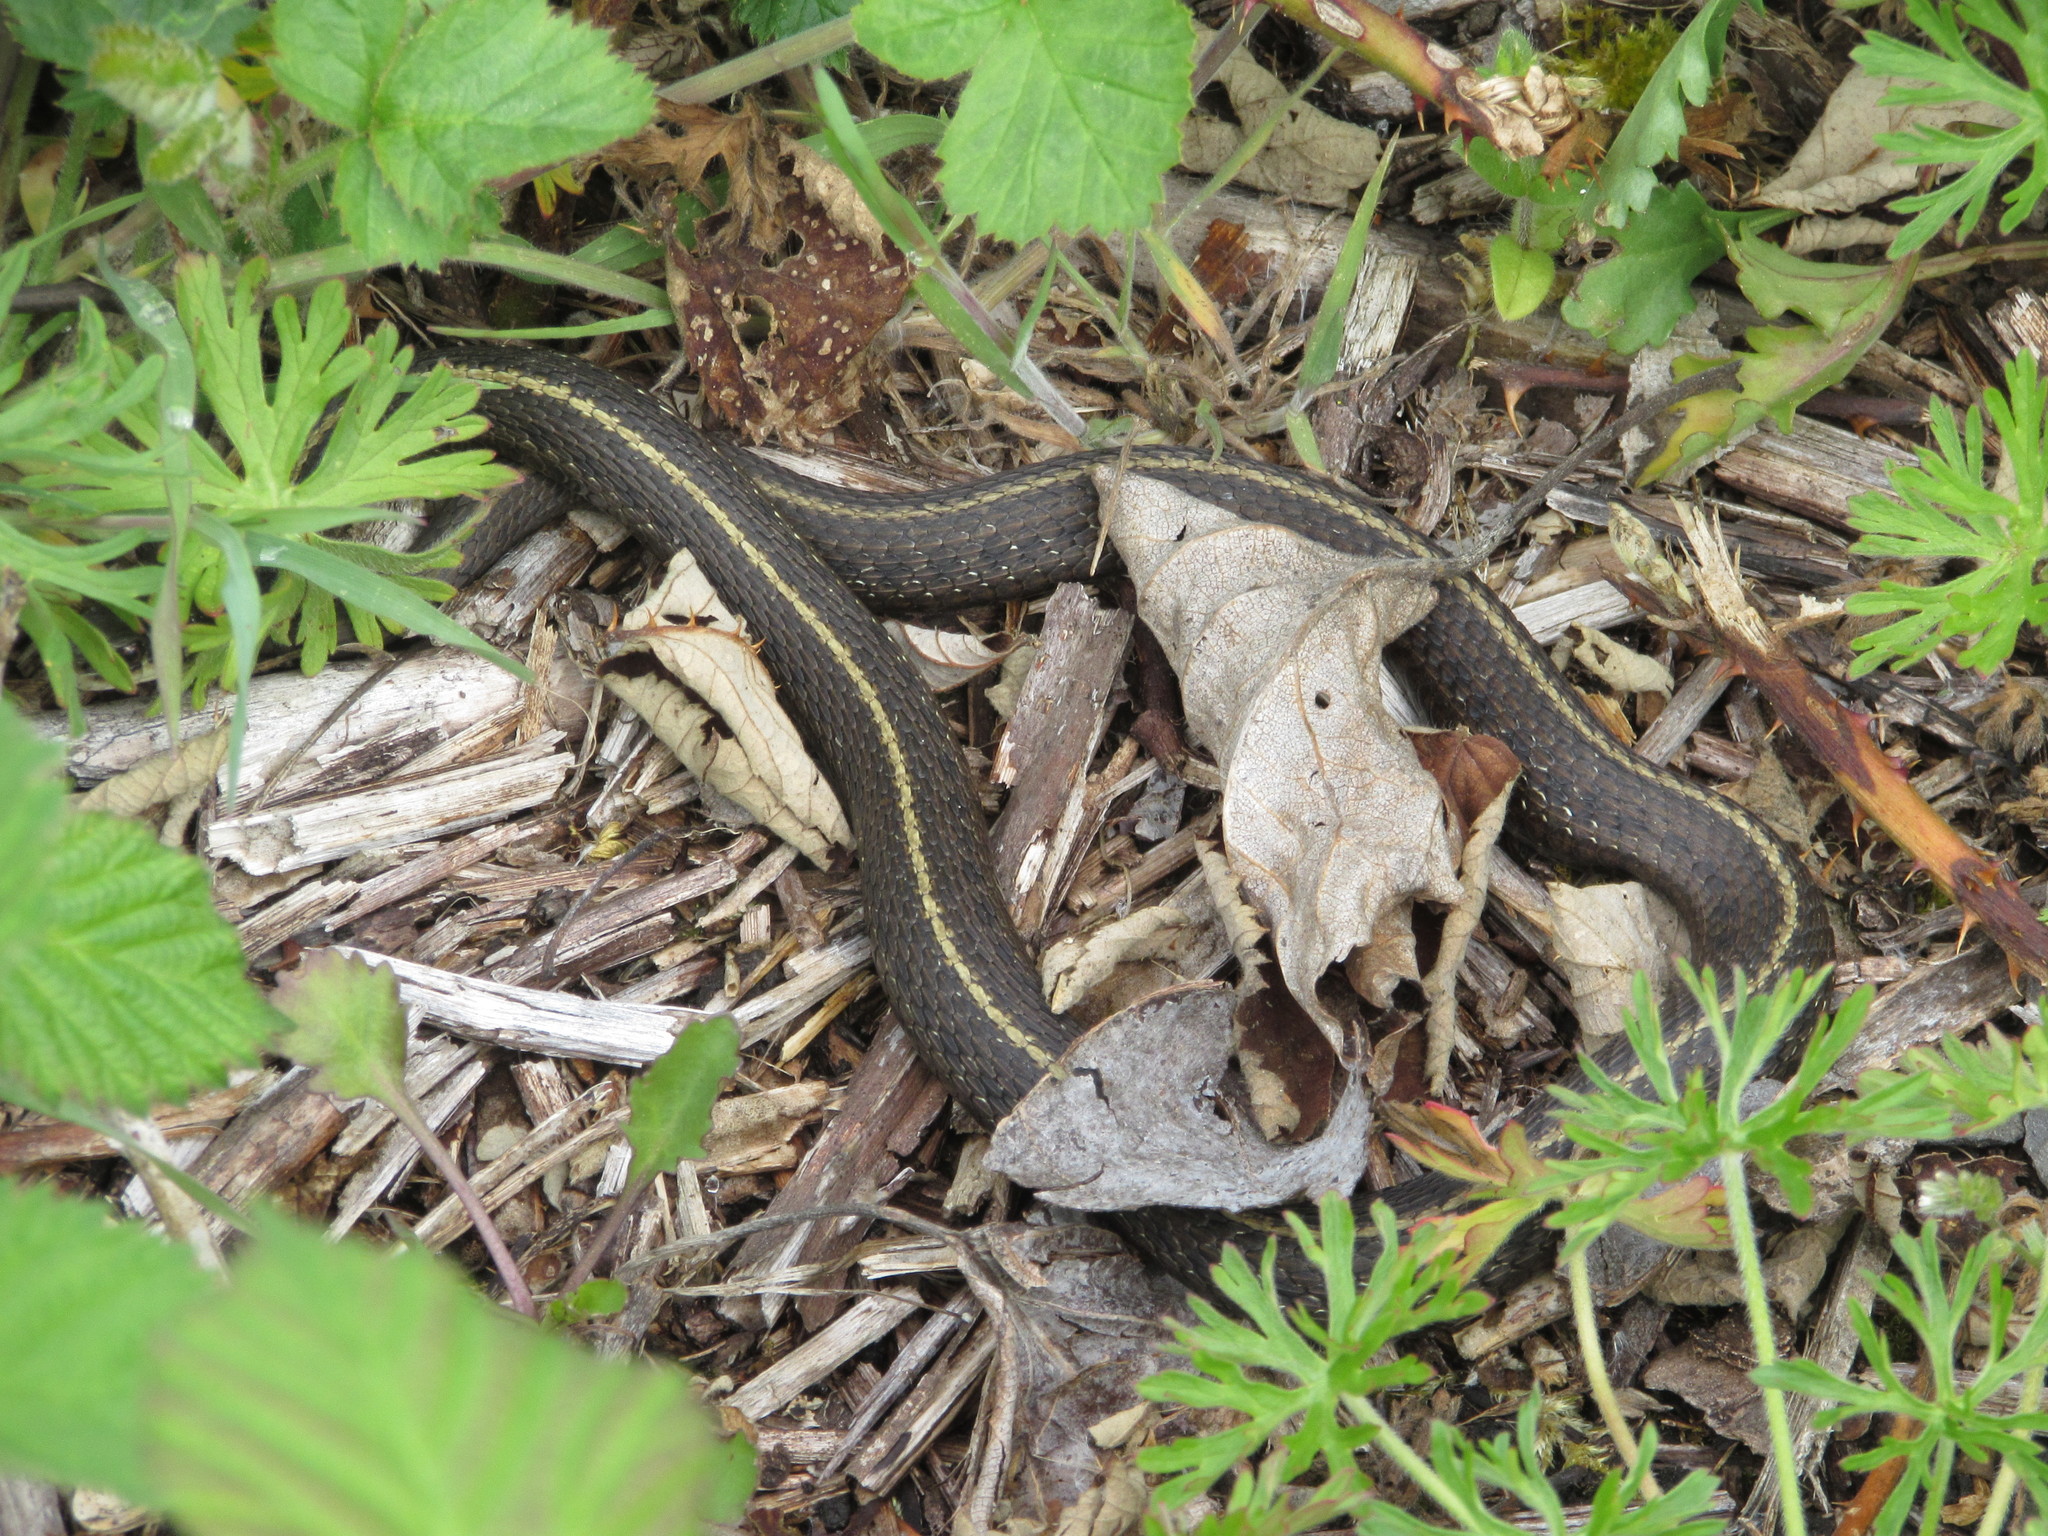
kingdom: Animalia
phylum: Chordata
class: Squamata
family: Colubridae
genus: Thamnophis
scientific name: Thamnophis ordinoides
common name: Northwestern garter snake
